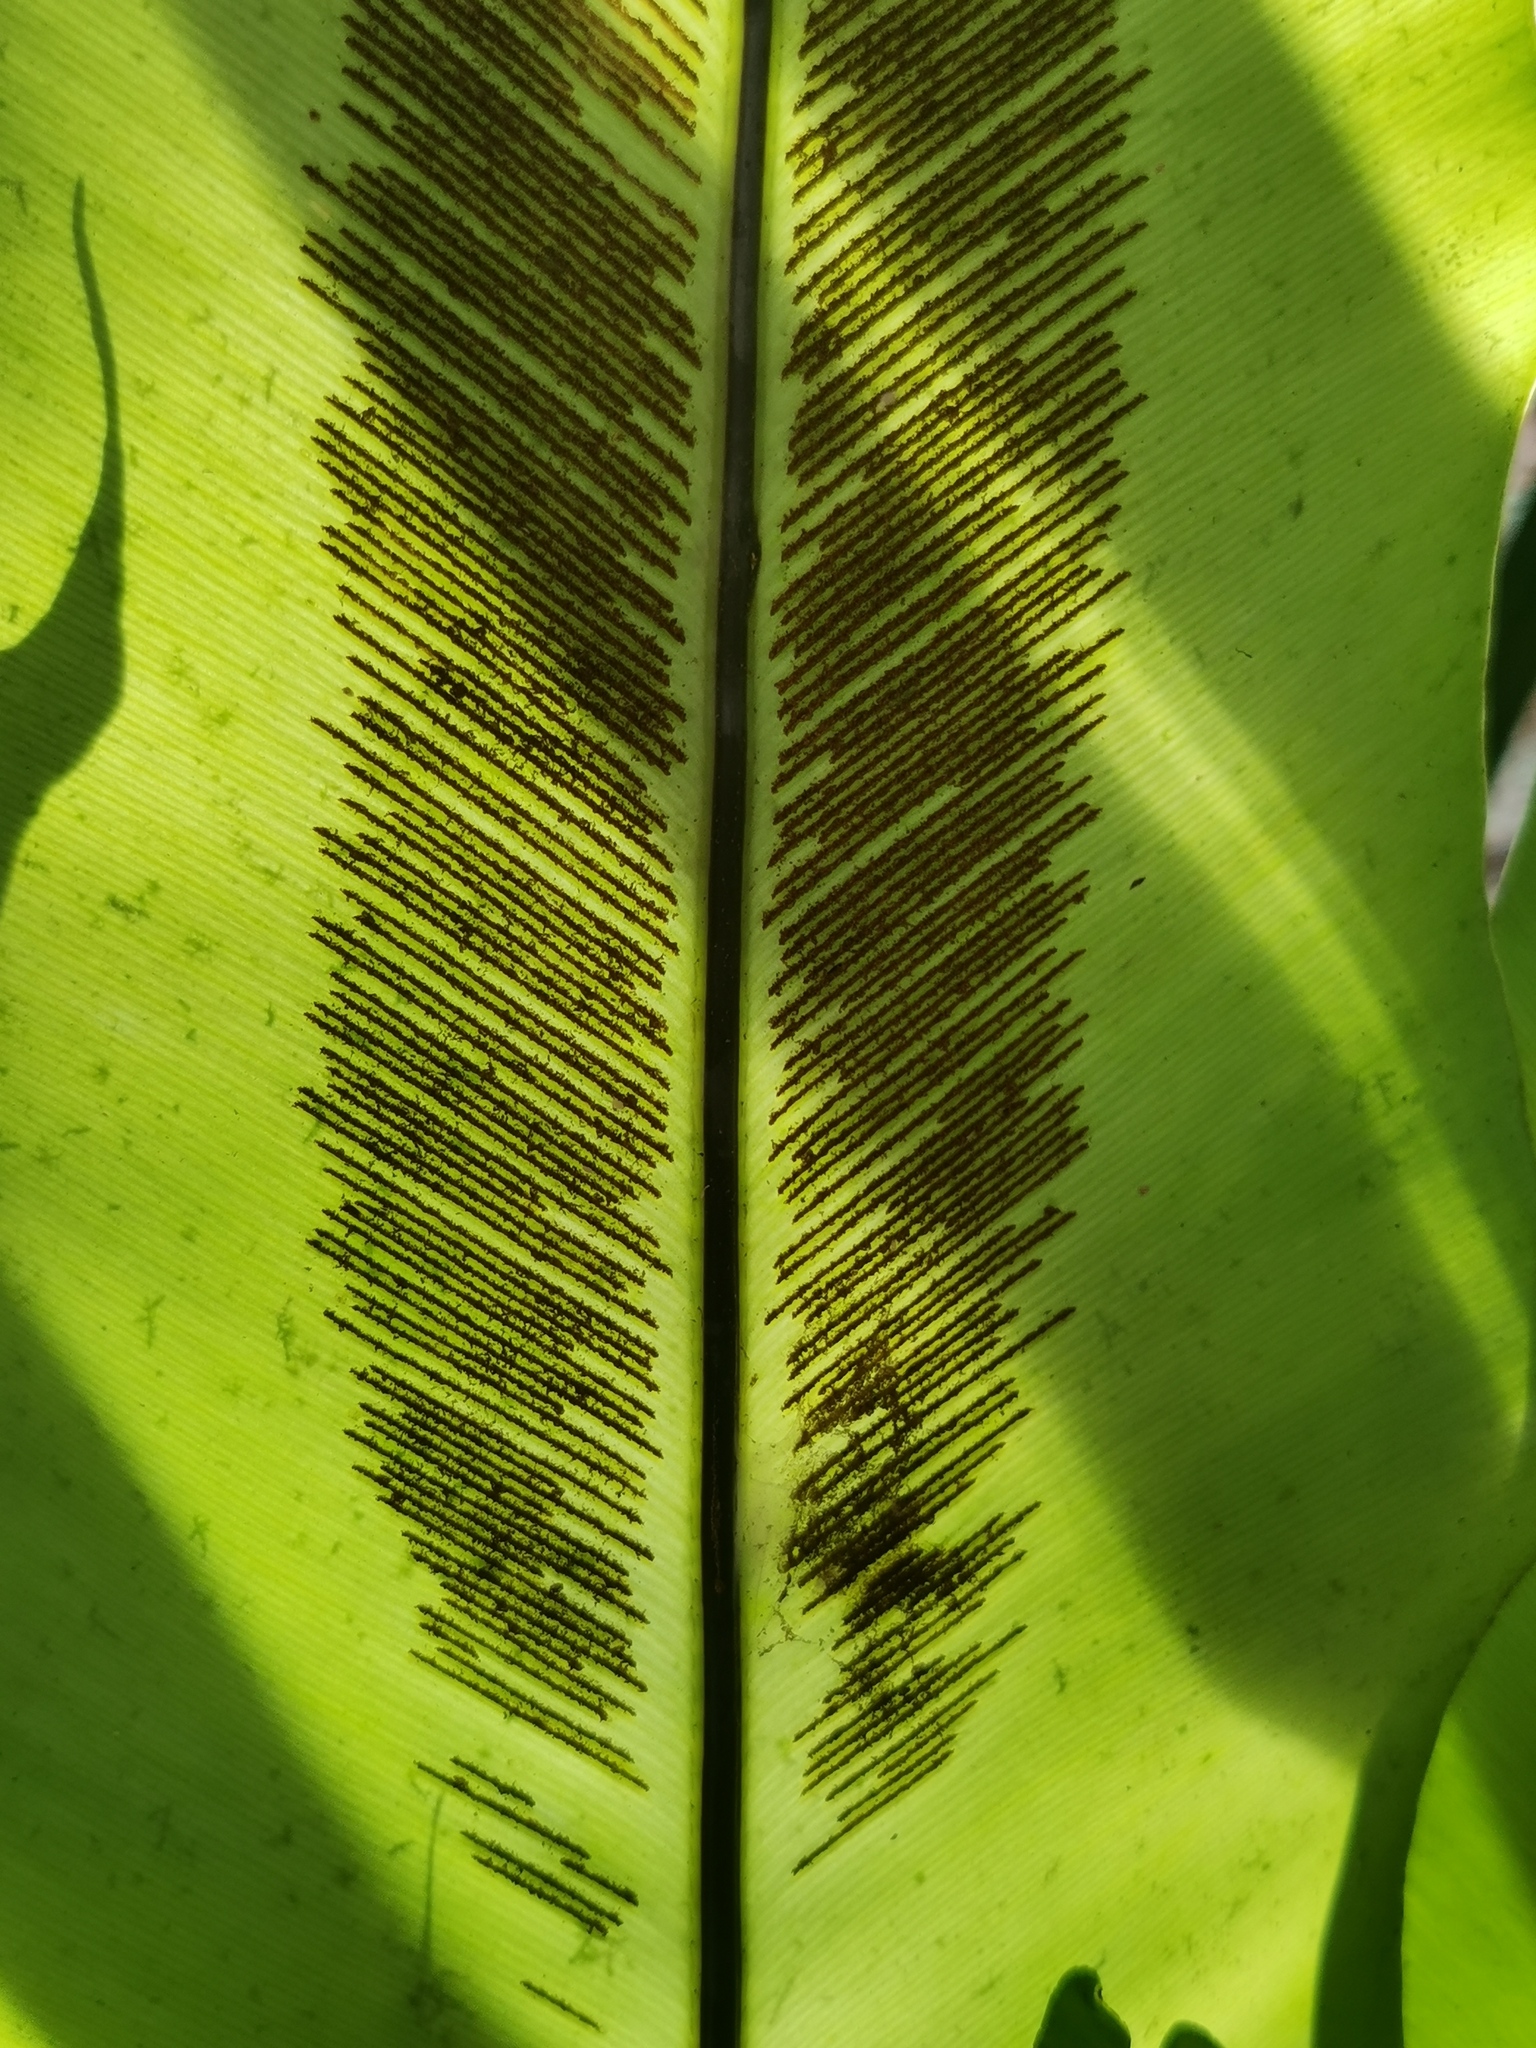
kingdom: Plantae
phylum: Tracheophyta
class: Polypodiopsida
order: Polypodiales
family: Aspleniaceae
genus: Asplenium
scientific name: Asplenium nidus
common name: Bird's-nest fern
